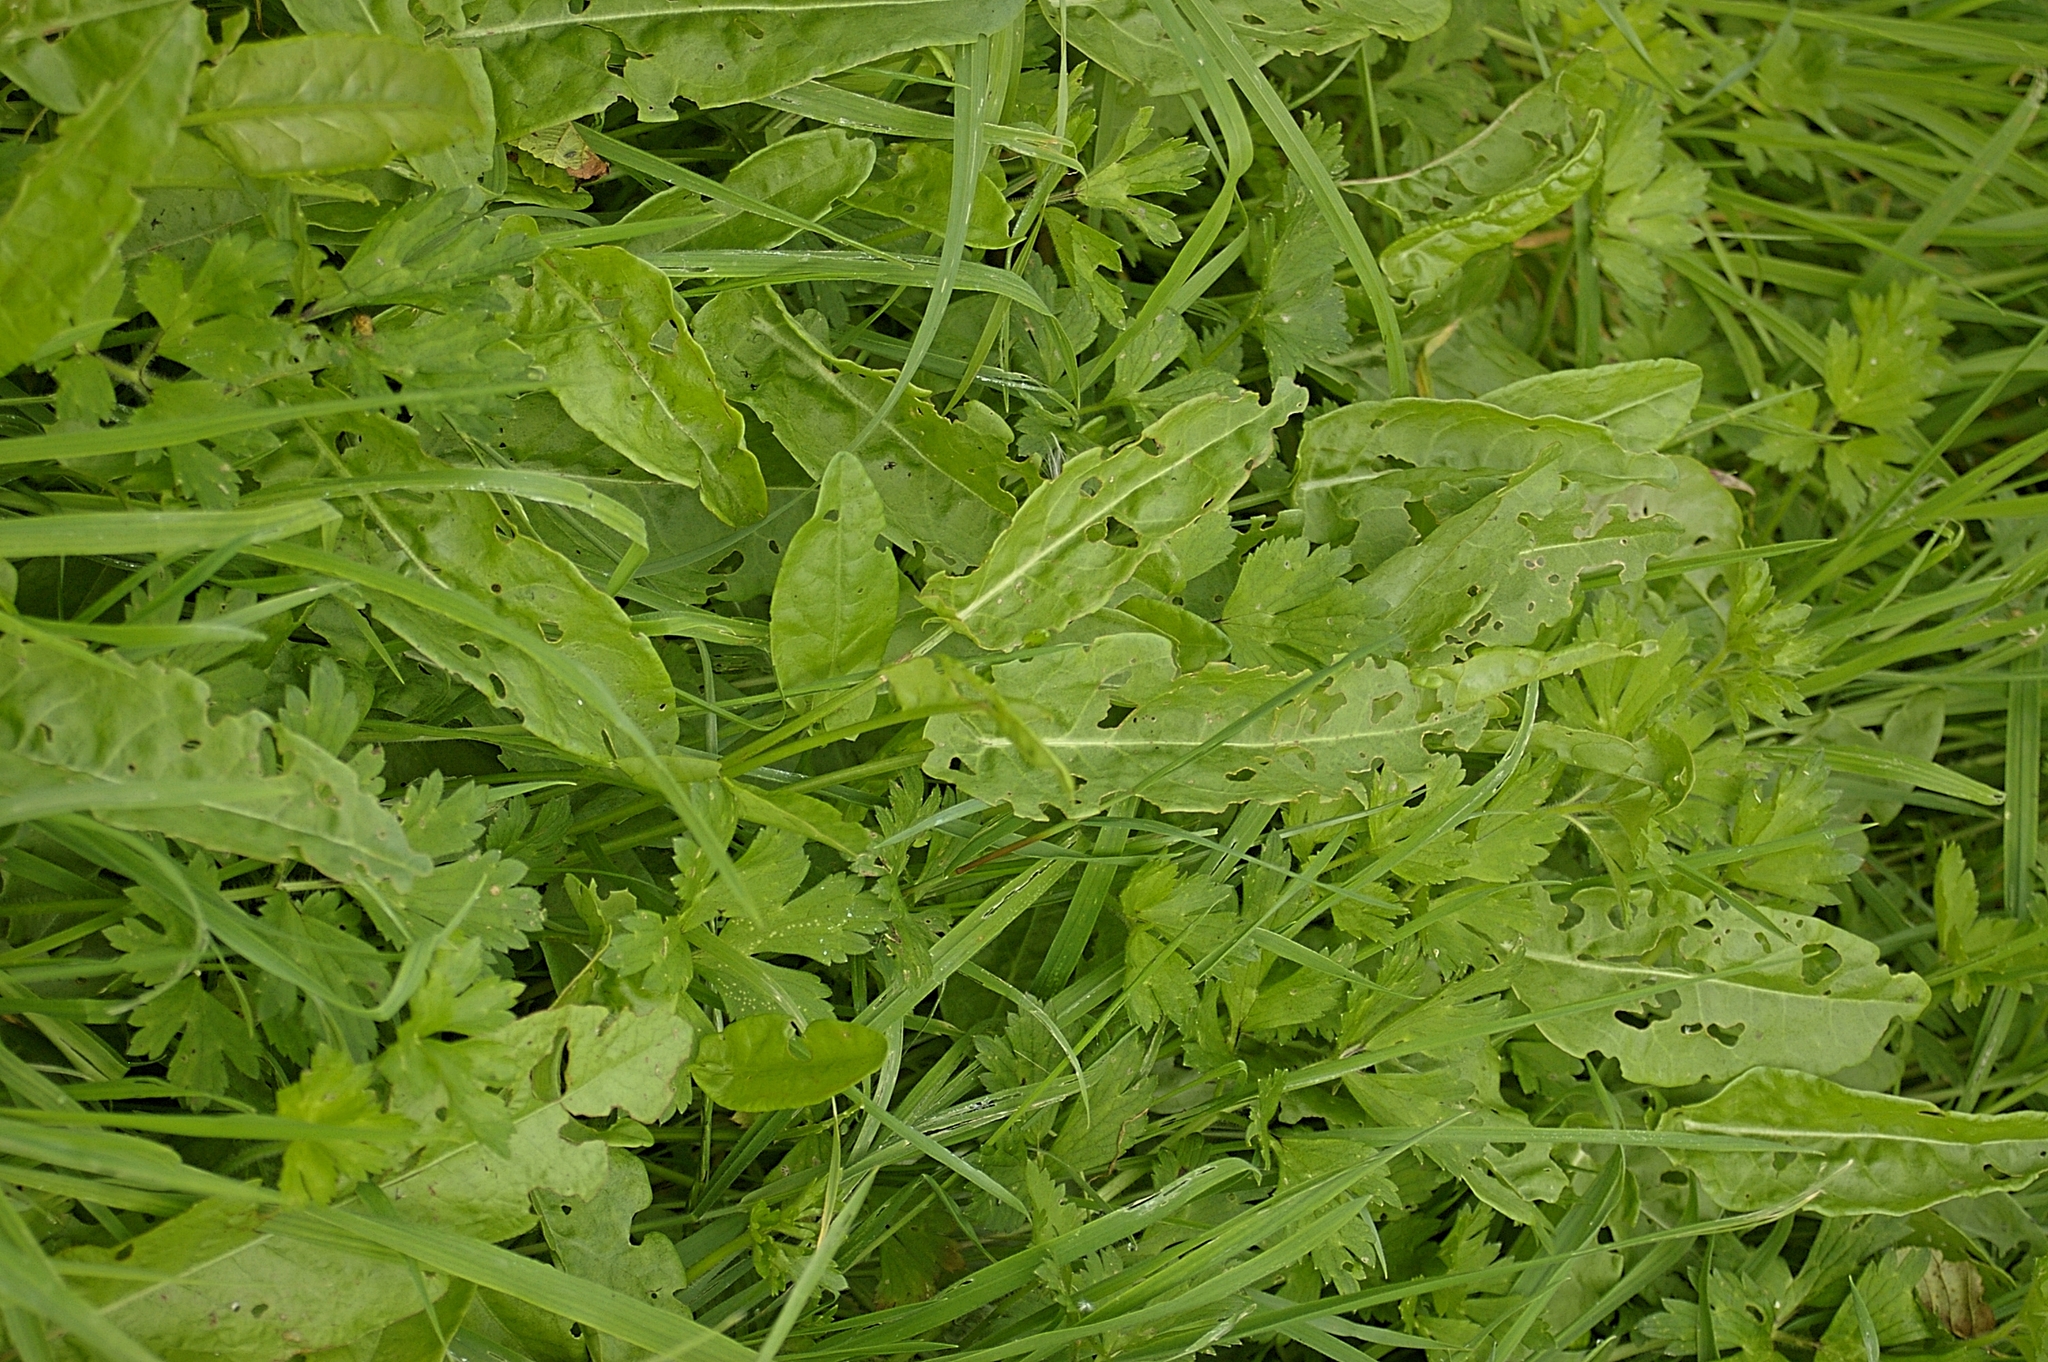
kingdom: Plantae
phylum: Tracheophyta
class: Magnoliopsida
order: Caryophyllales
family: Polygonaceae
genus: Rumex
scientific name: Rumex acetosa
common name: Garden sorrel
